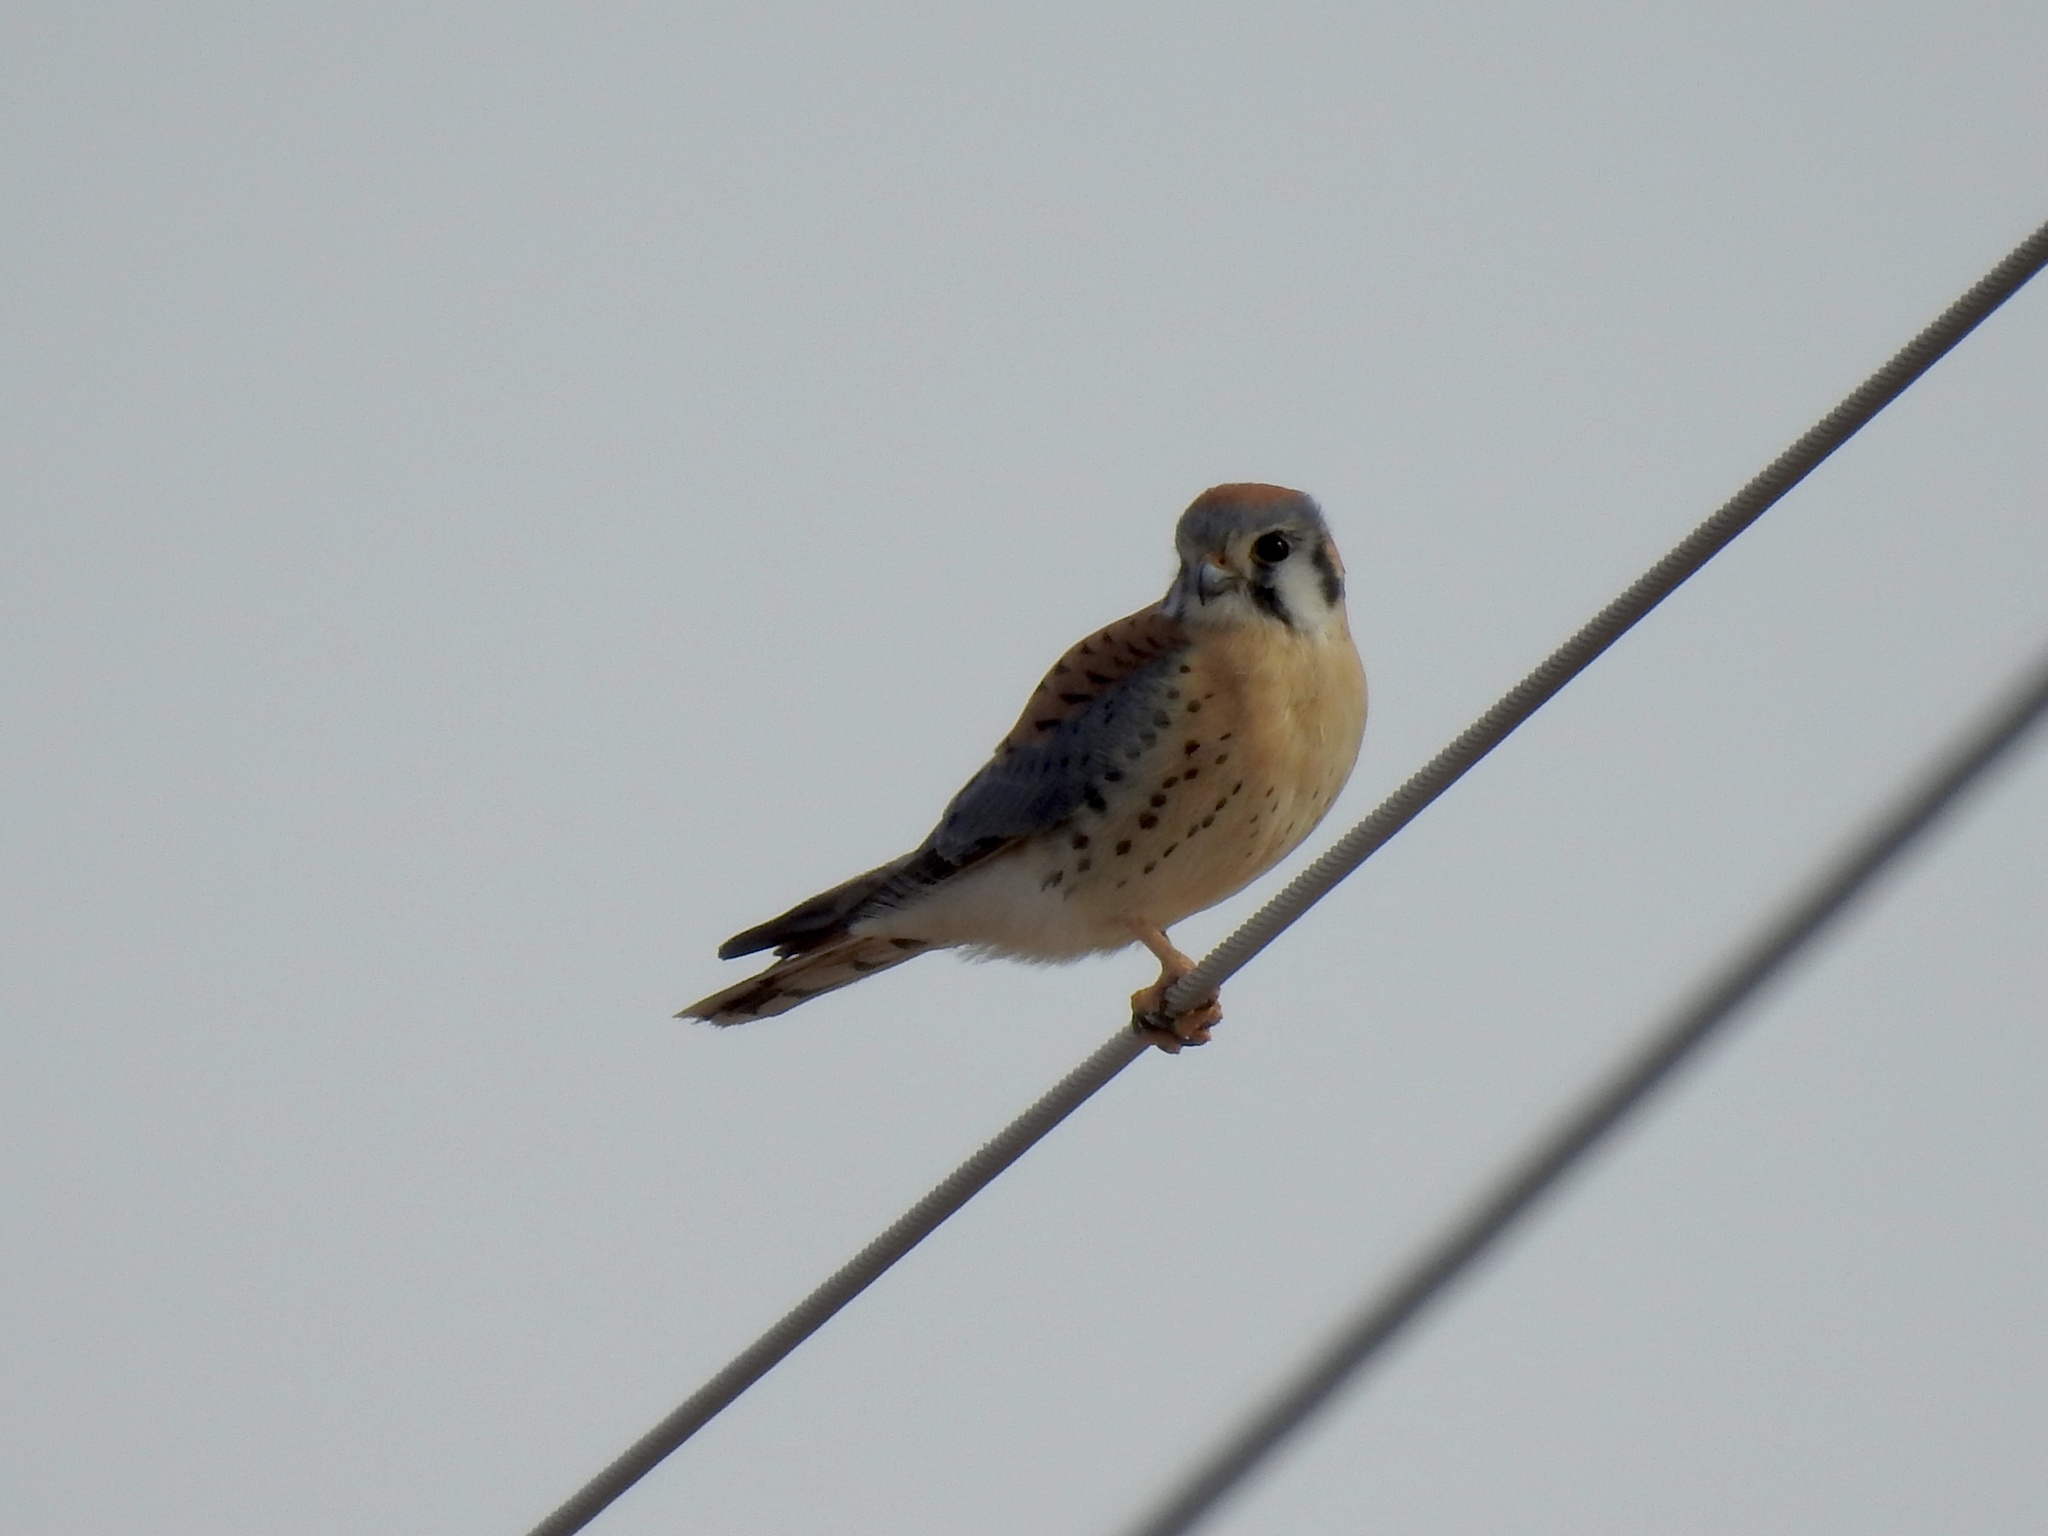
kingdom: Animalia
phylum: Chordata
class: Aves
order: Falconiformes
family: Falconidae
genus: Falco
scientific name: Falco sparverius
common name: American kestrel
